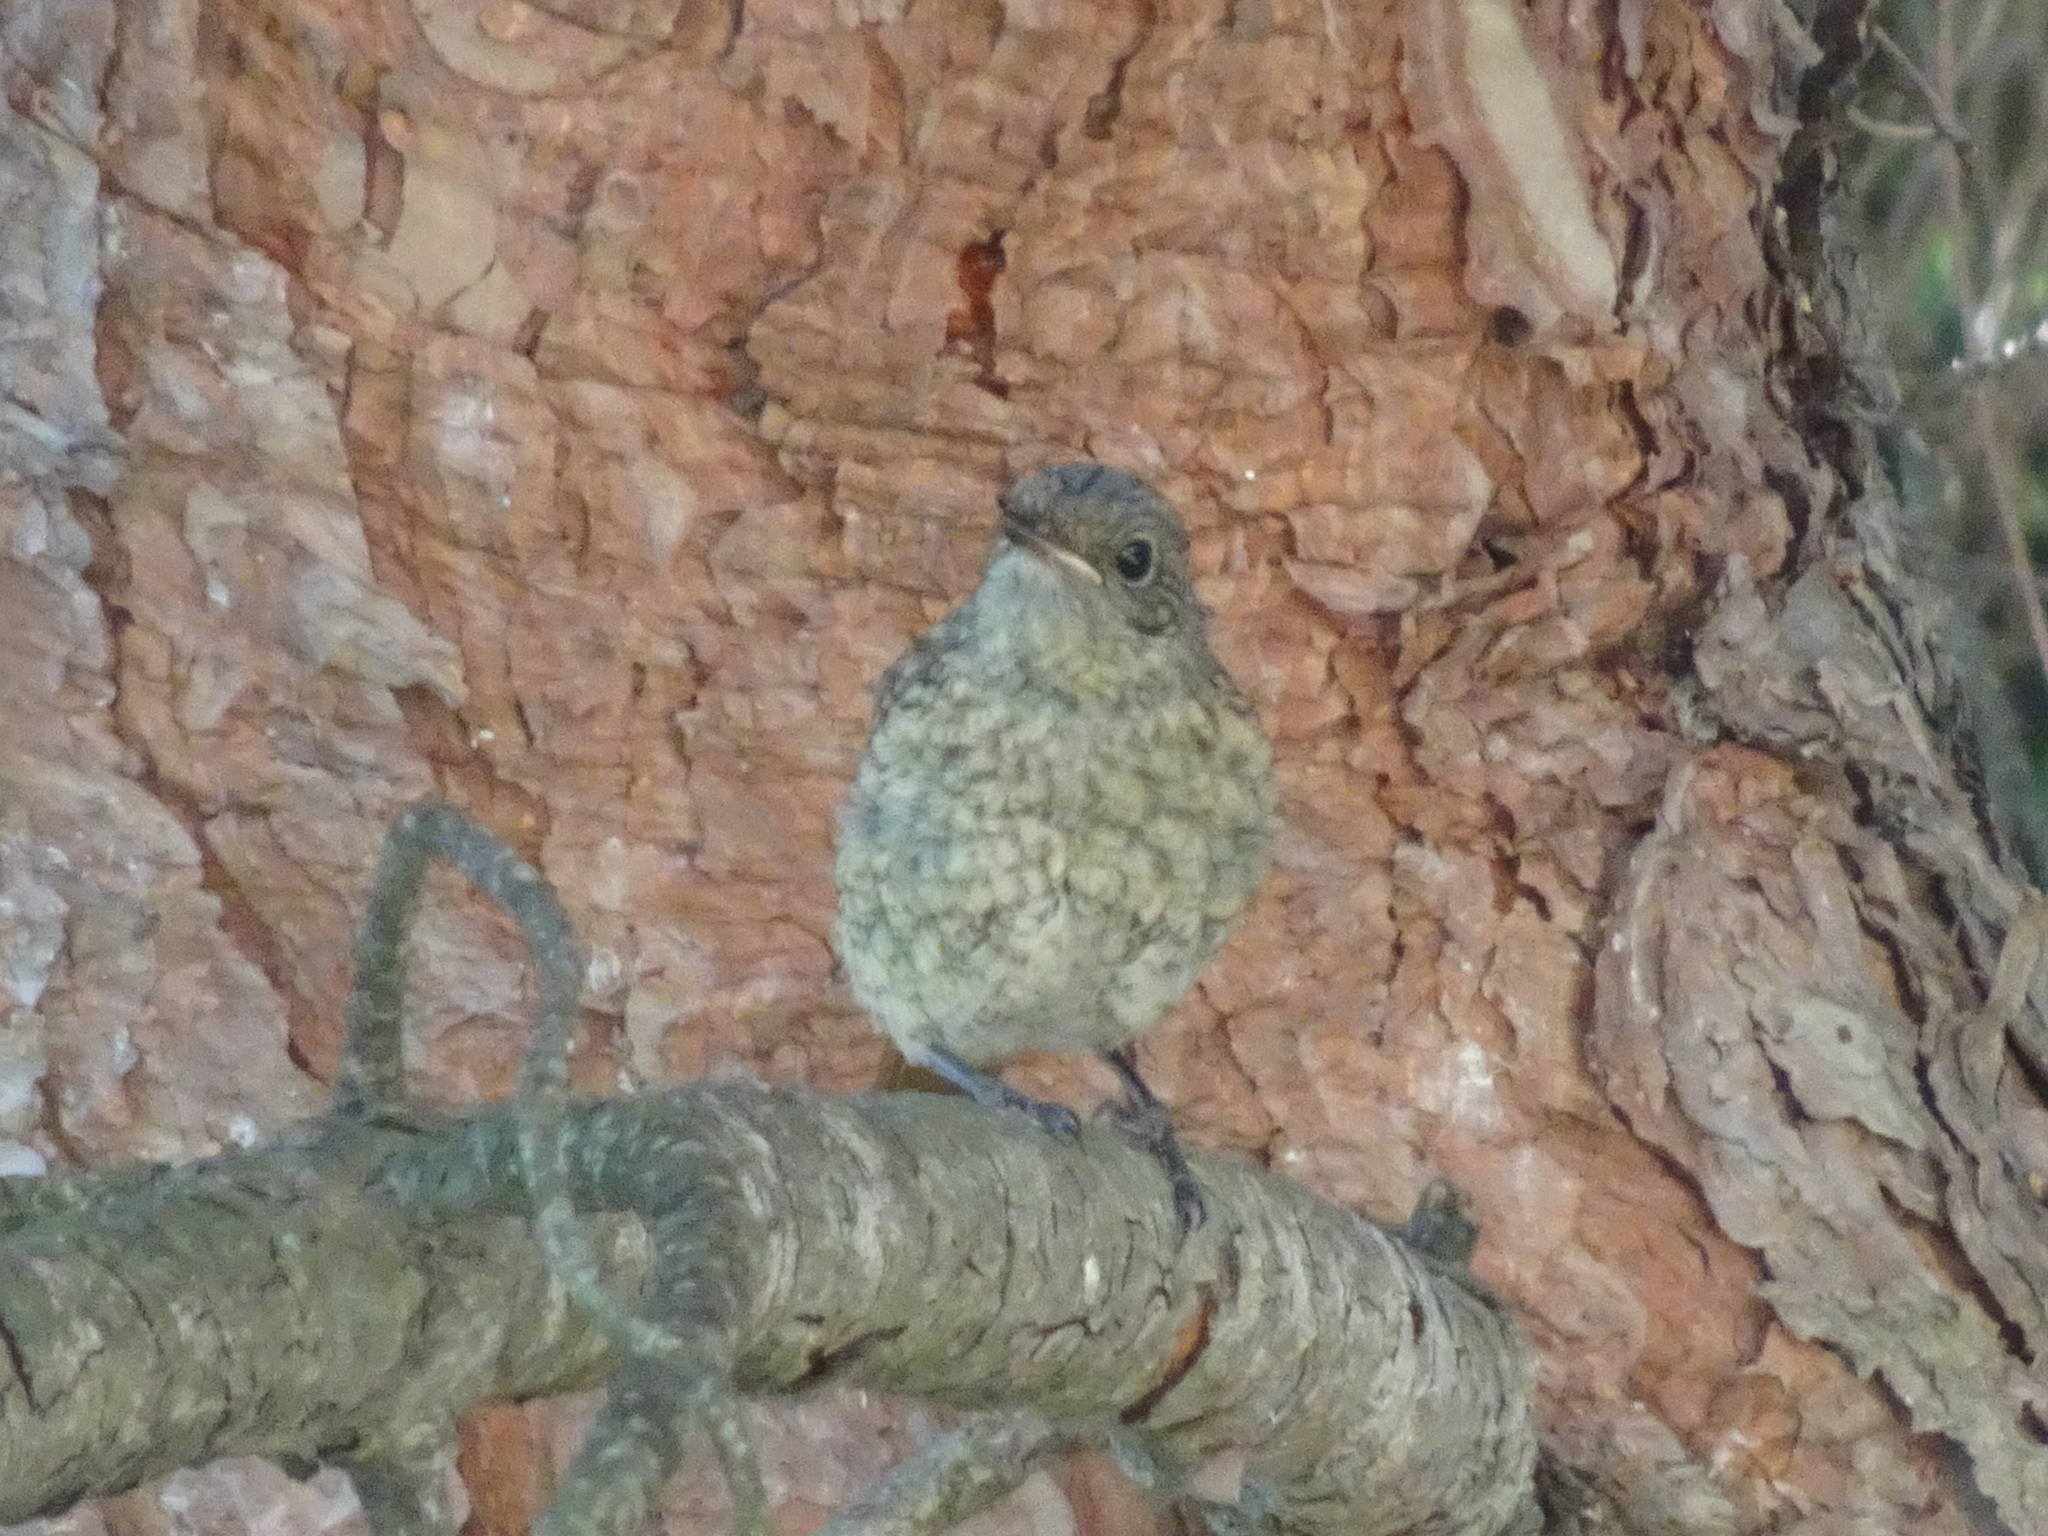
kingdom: Animalia
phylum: Chordata
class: Aves
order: Passeriformes
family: Muscicapidae
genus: Phoenicurus
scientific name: Phoenicurus phoenicurus
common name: Common redstart
